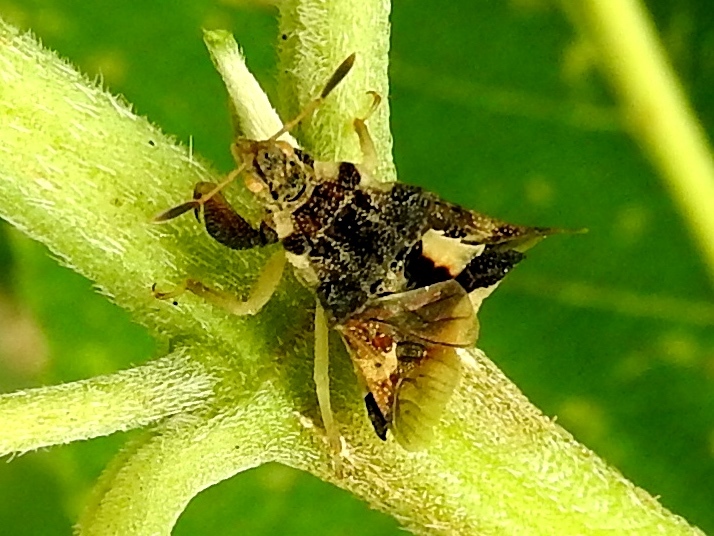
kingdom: Animalia
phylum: Arthropoda
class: Insecta
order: Hemiptera
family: Reduviidae
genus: Phymata
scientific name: Phymata
